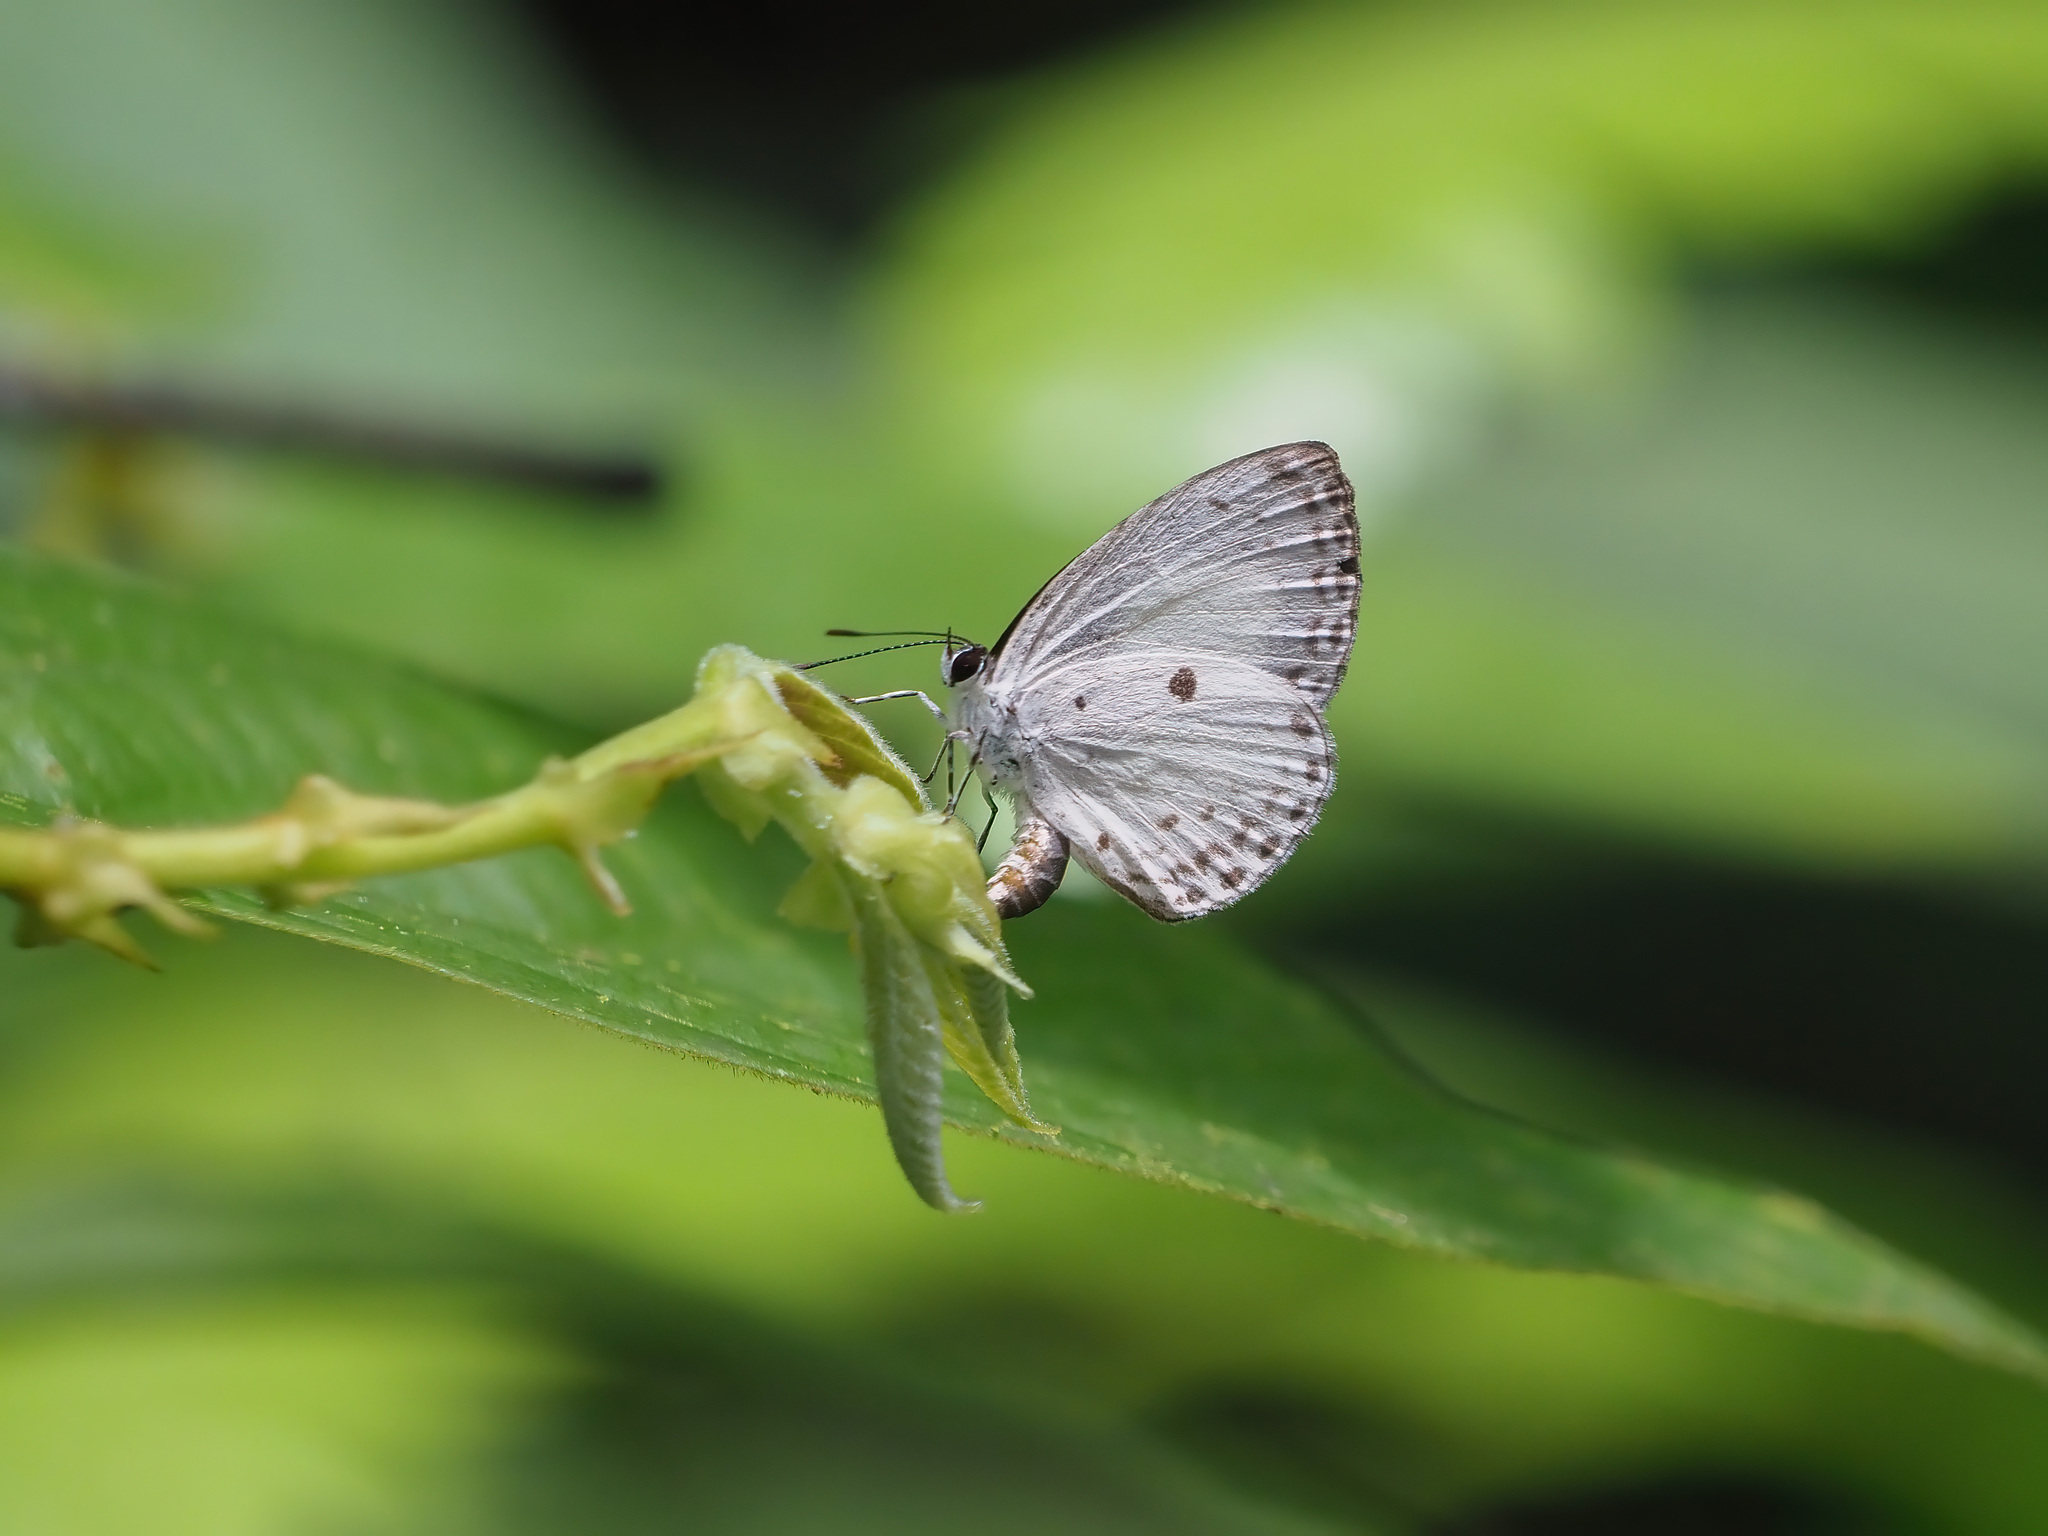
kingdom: Animalia
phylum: Arthropoda
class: Insecta
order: Lepidoptera
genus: Plautella
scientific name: Plautella
